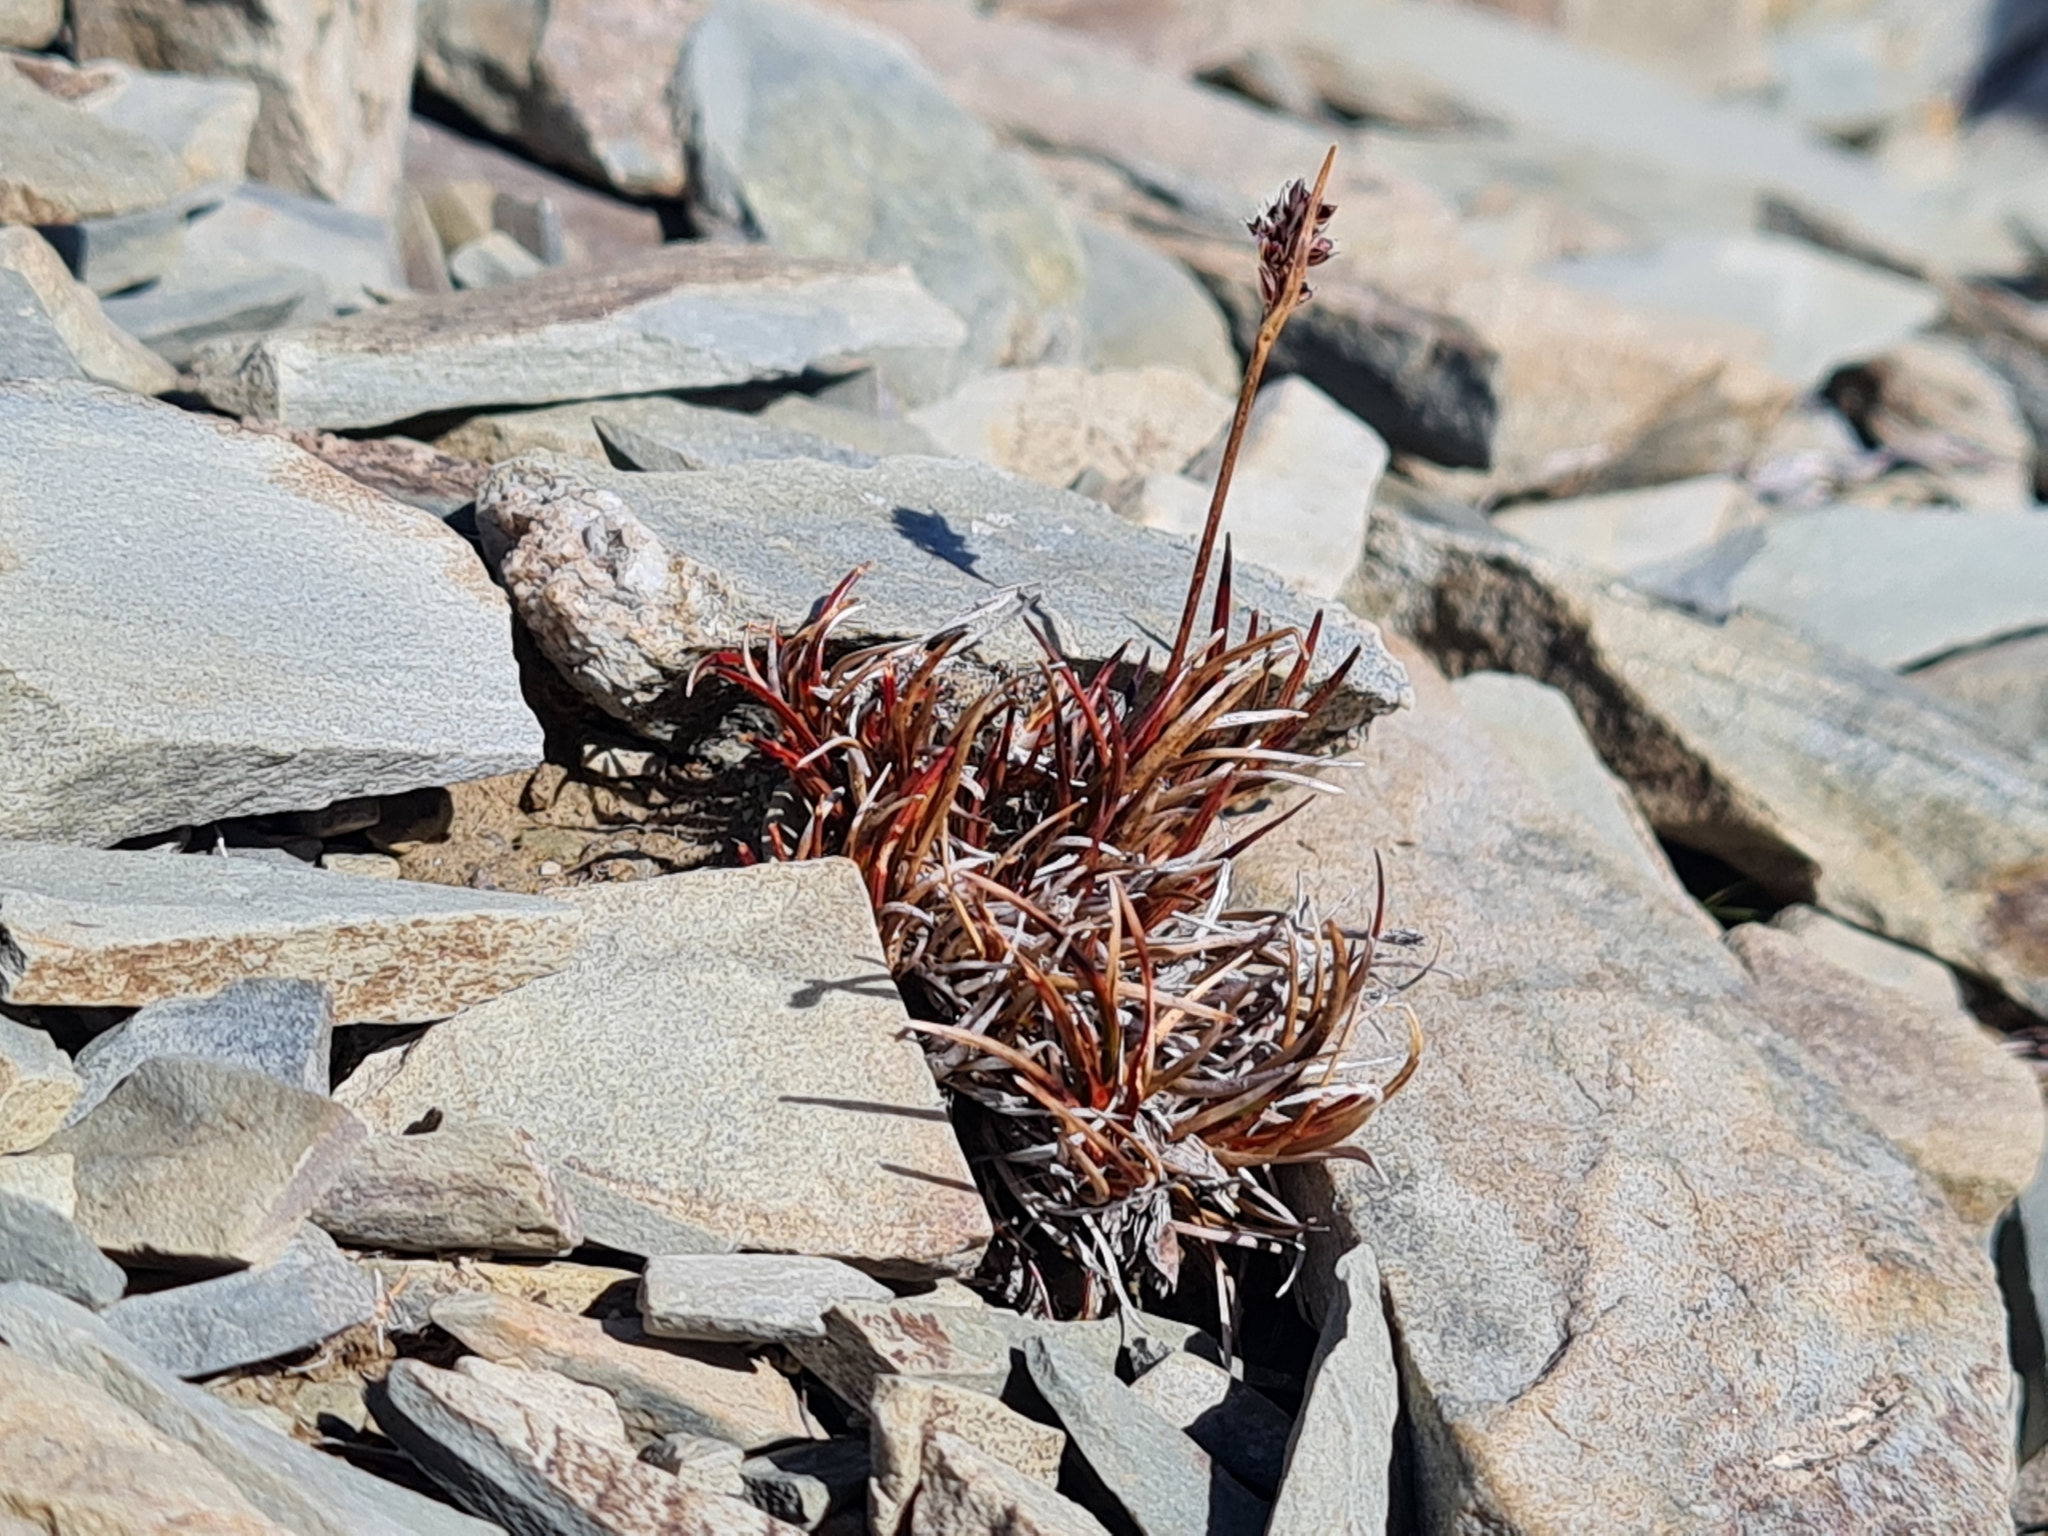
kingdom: Plantae
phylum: Tracheophyta
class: Liliopsida
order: Poales
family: Juncaceae
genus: Luzula
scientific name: Luzula pumila
